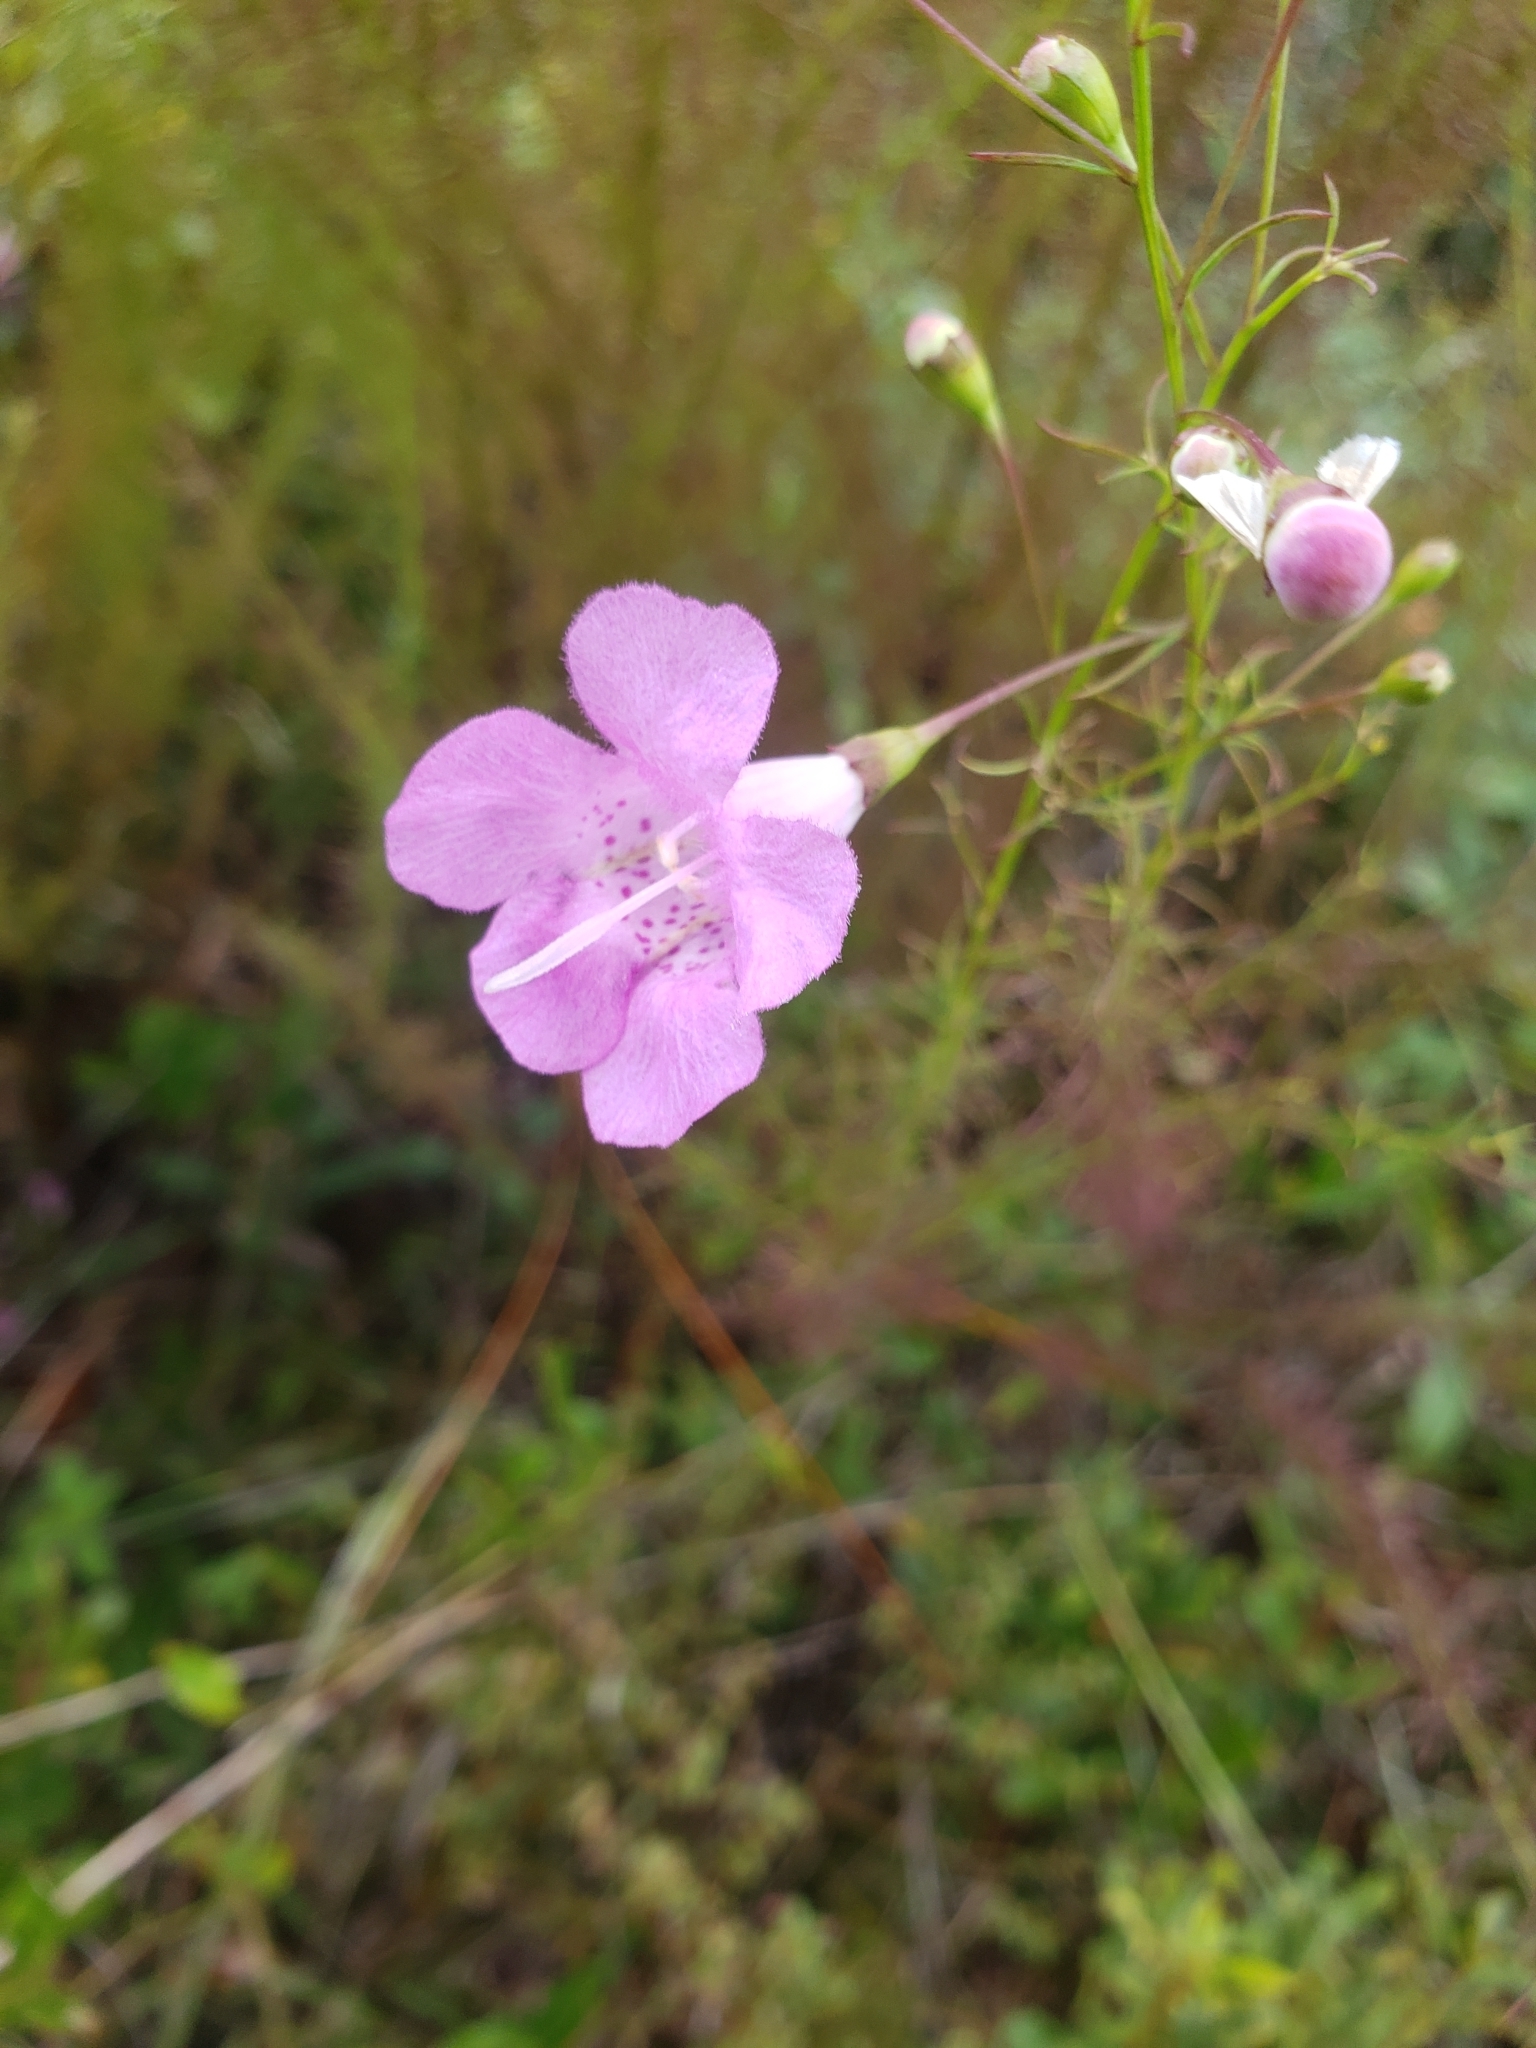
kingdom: Plantae
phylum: Tracheophyta
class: Magnoliopsida
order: Lamiales
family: Orobanchaceae
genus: Agalinis
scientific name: Agalinis filifolia
